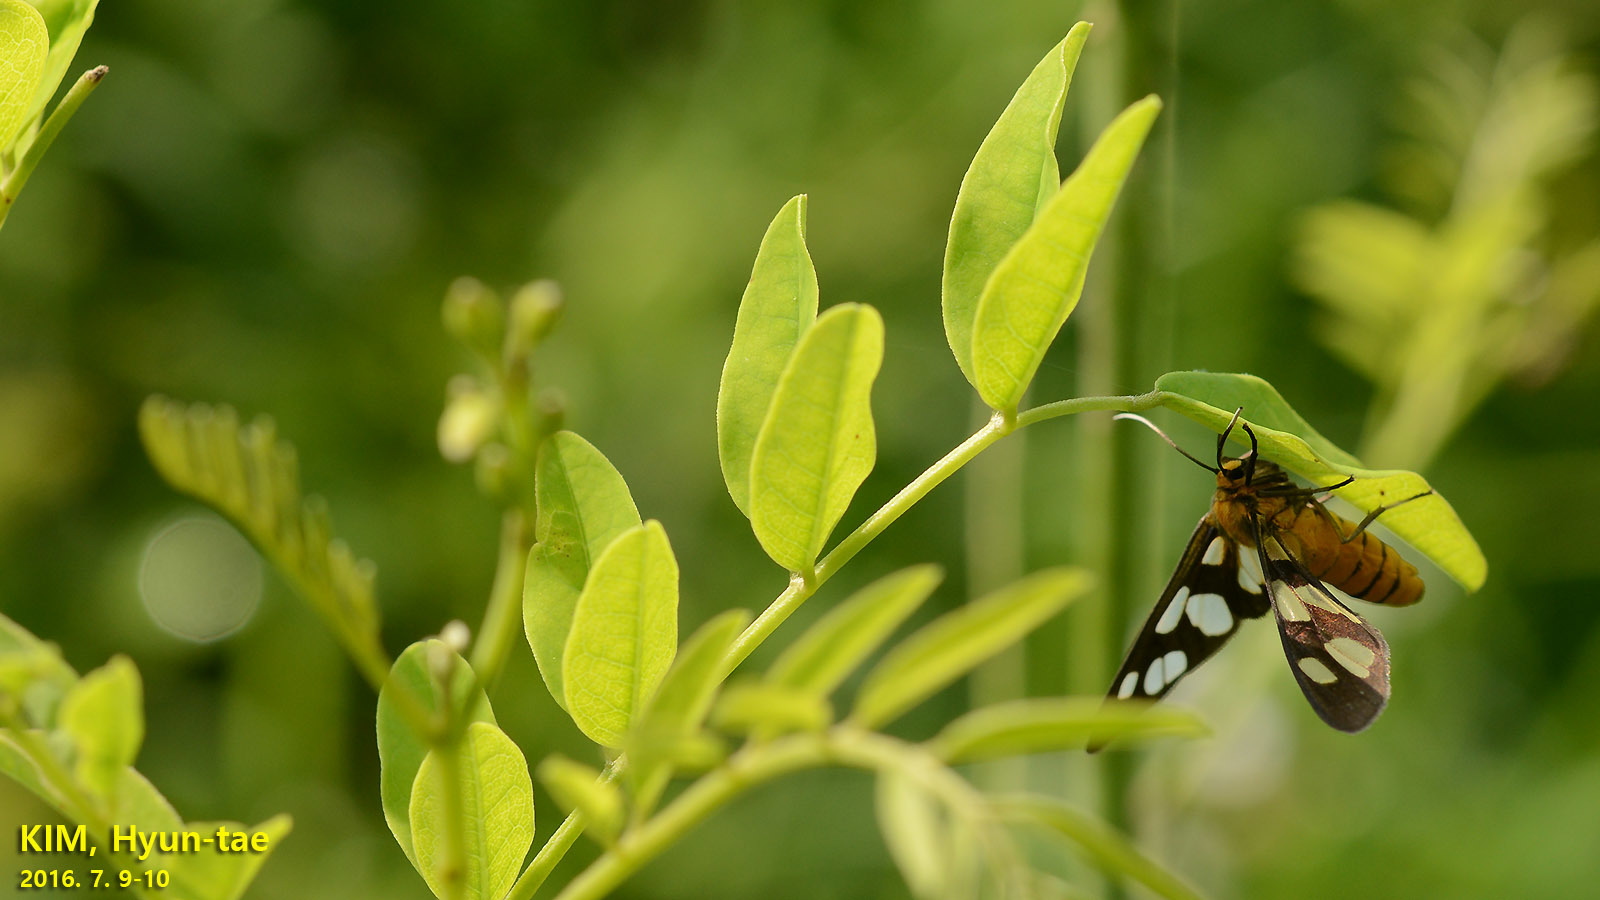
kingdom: Animalia
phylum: Arthropoda
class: Insecta
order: Lepidoptera
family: Erebidae
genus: Amata
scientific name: Amata germana
